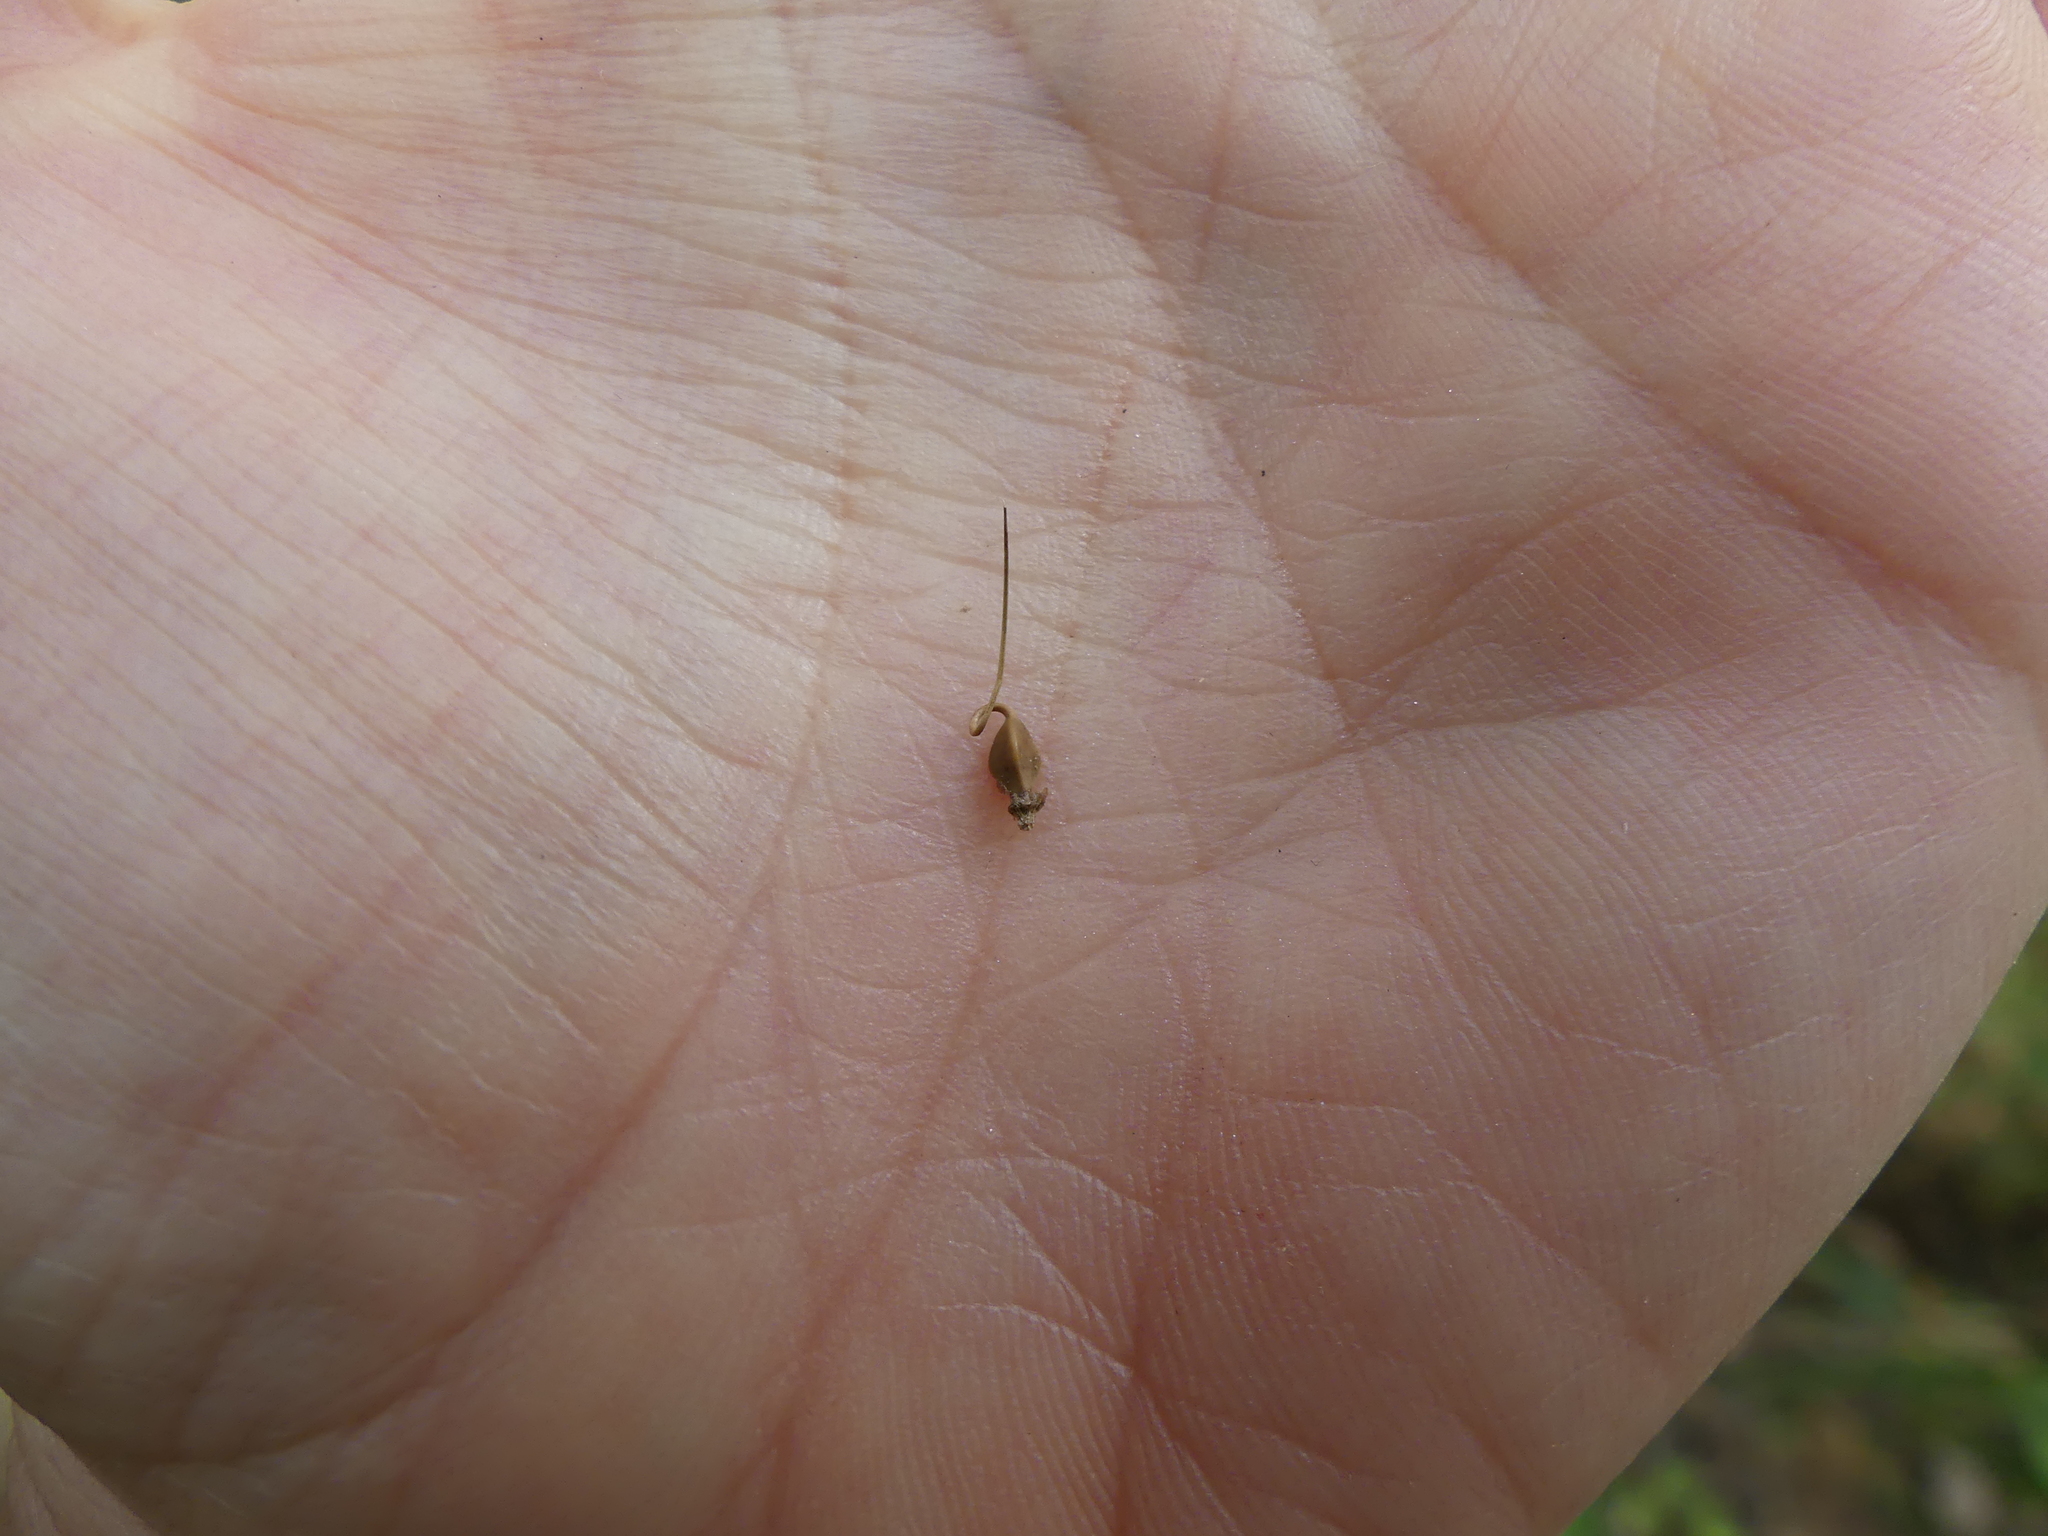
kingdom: Plantae
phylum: Tracheophyta
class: Liliopsida
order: Poales
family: Cyperaceae
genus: Carex
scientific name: Carex lupulina
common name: Hop sedge
